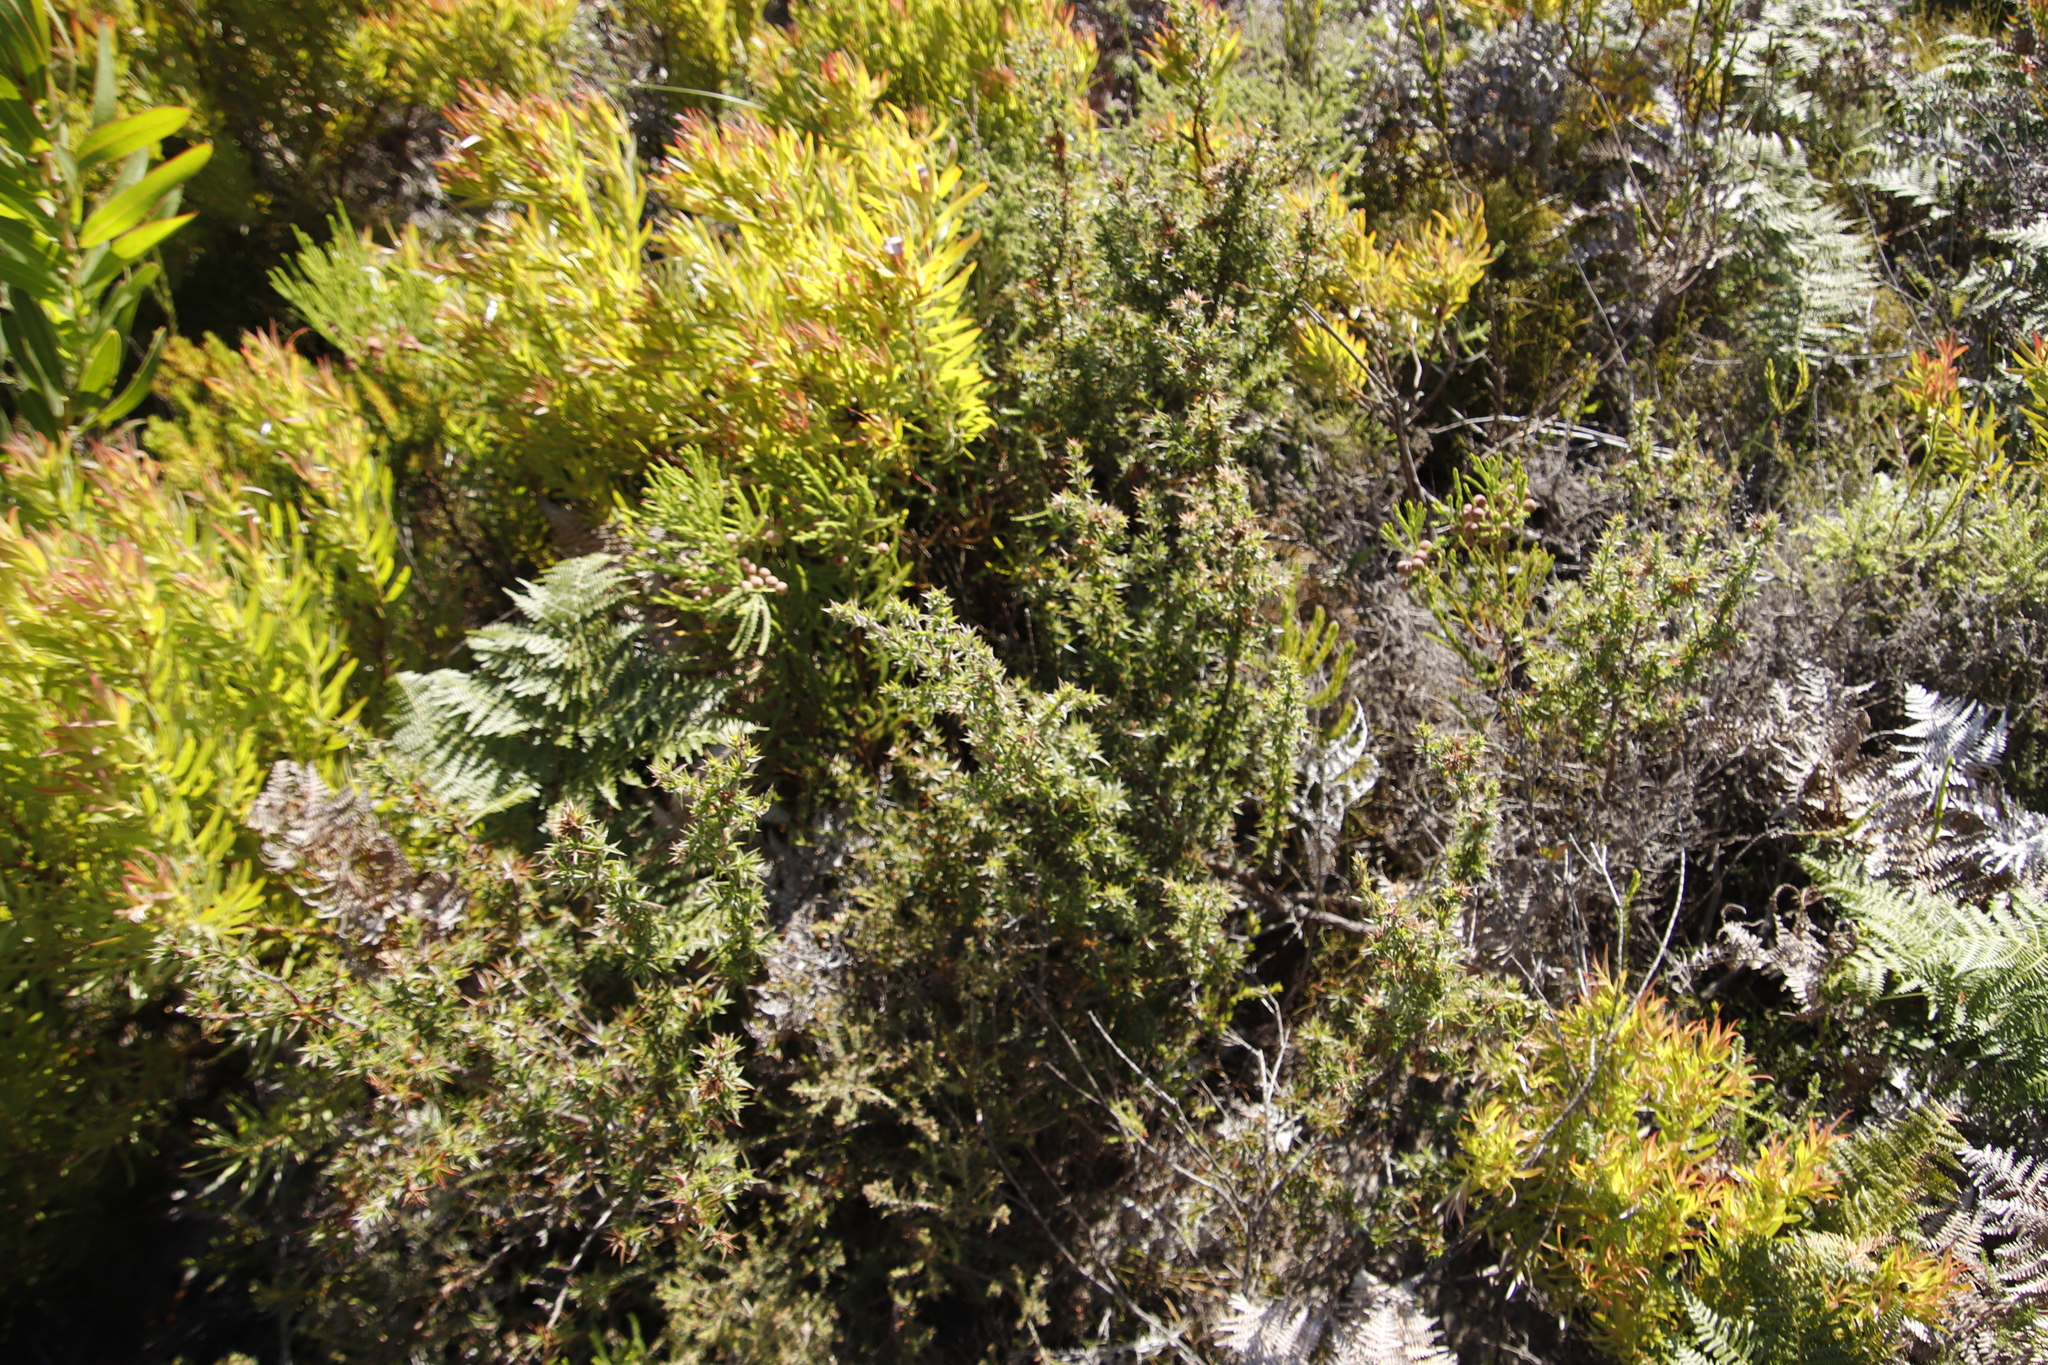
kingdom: Plantae
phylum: Tracheophyta
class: Magnoliopsida
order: Rosales
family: Rosaceae
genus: Cliffortia
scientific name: Cliffortia ruscifolia
